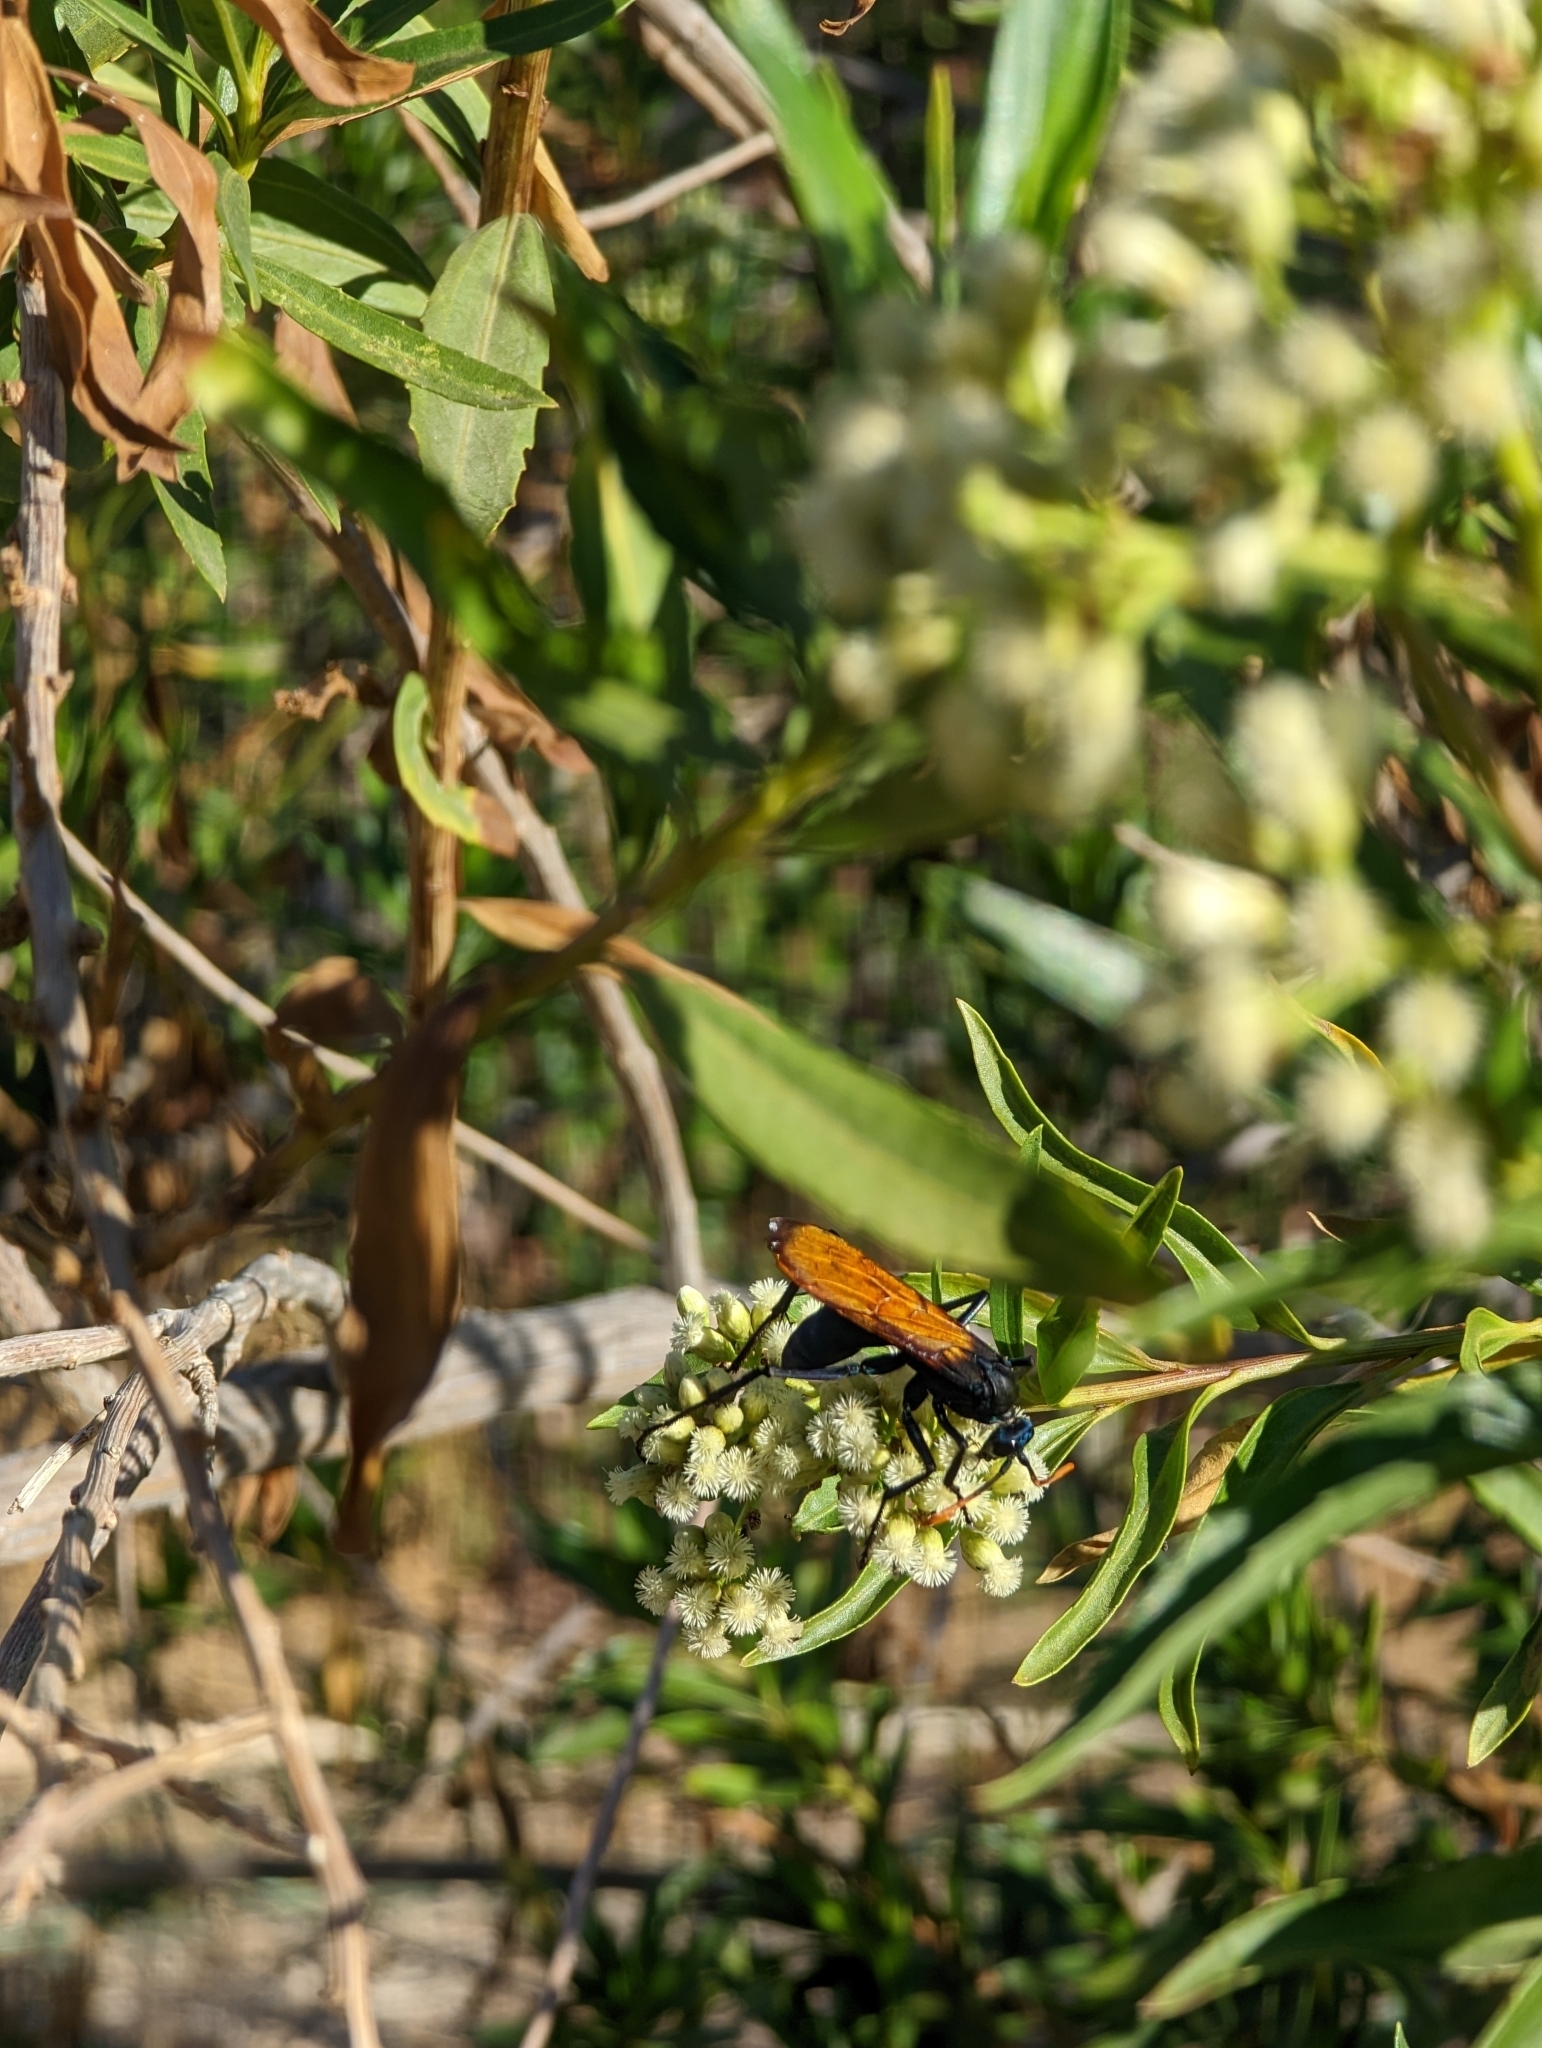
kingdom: Plantae
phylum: Tracheophyta
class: Magnoliopsida
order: Asterales
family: Asteraceae
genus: Baccharis
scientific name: Baccharis salicifolia
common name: Sticky baccharis
